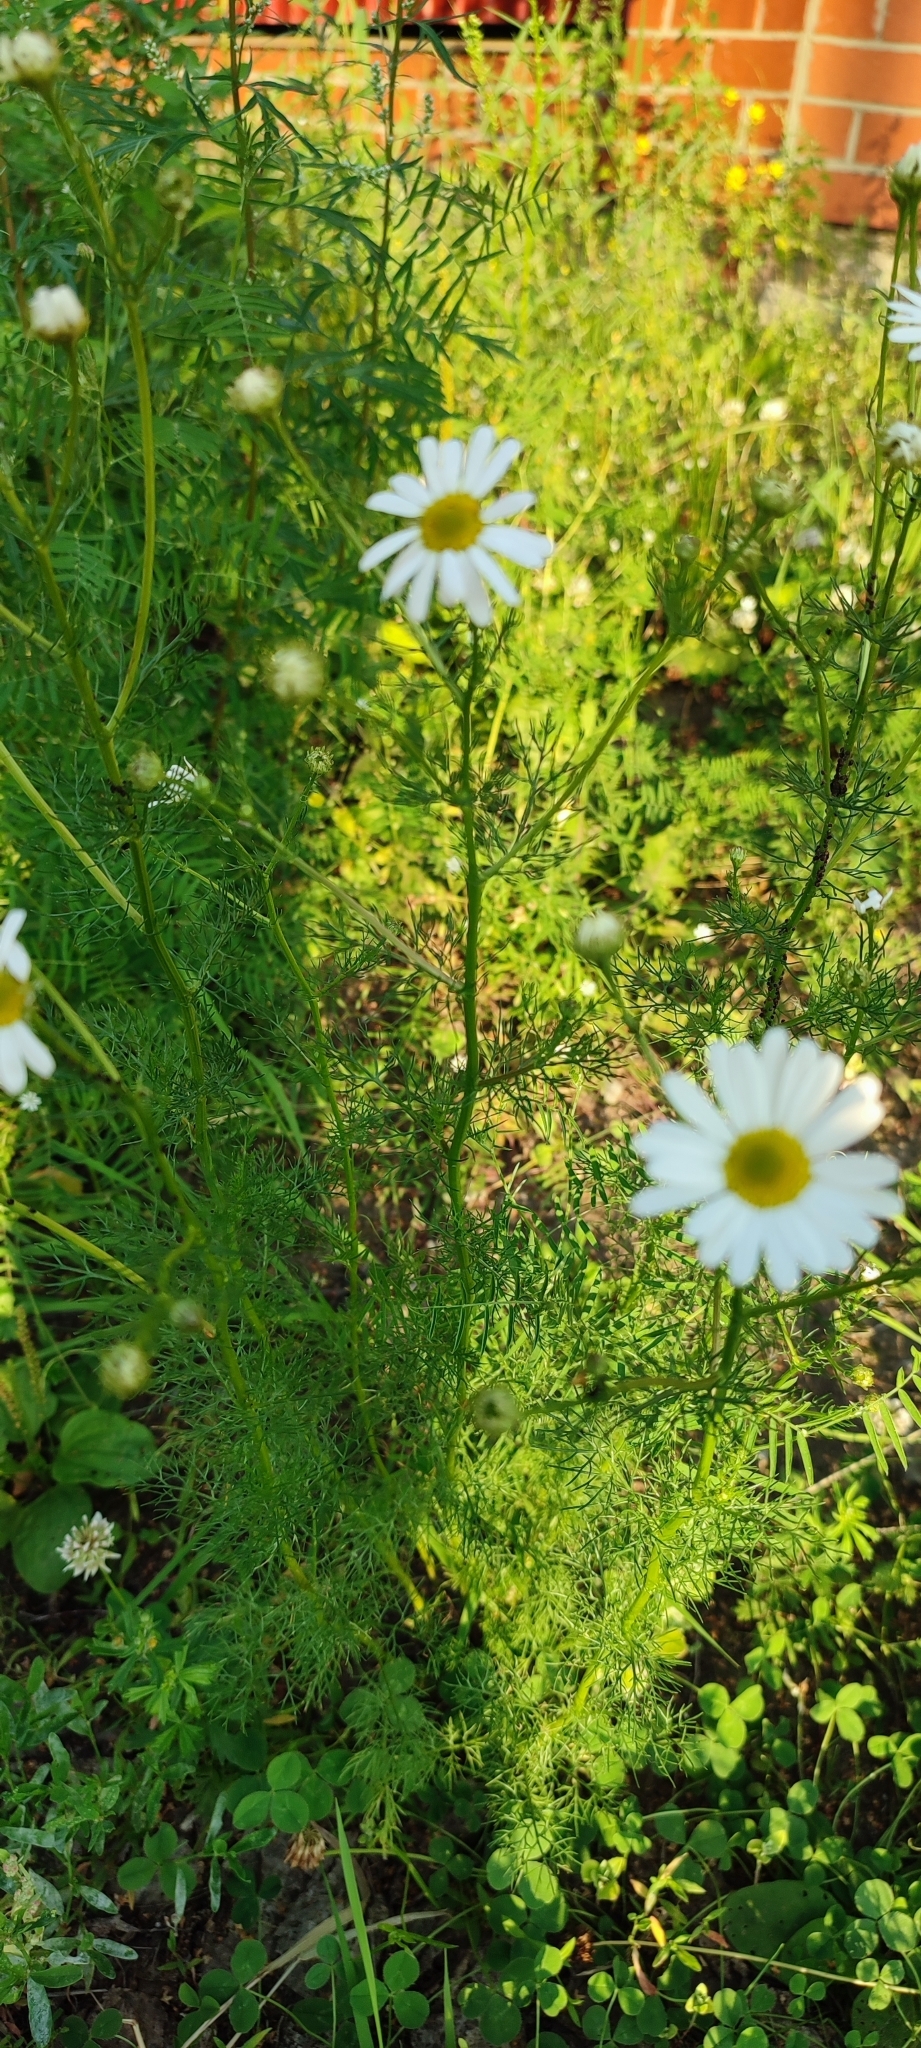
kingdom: Plantae
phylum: Tracheophyta
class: Magnoliopsida
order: Asterales
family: Asteraceae
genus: Tripleurospermum
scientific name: Tripleurospermum inodorum
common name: Scentless mayweed
